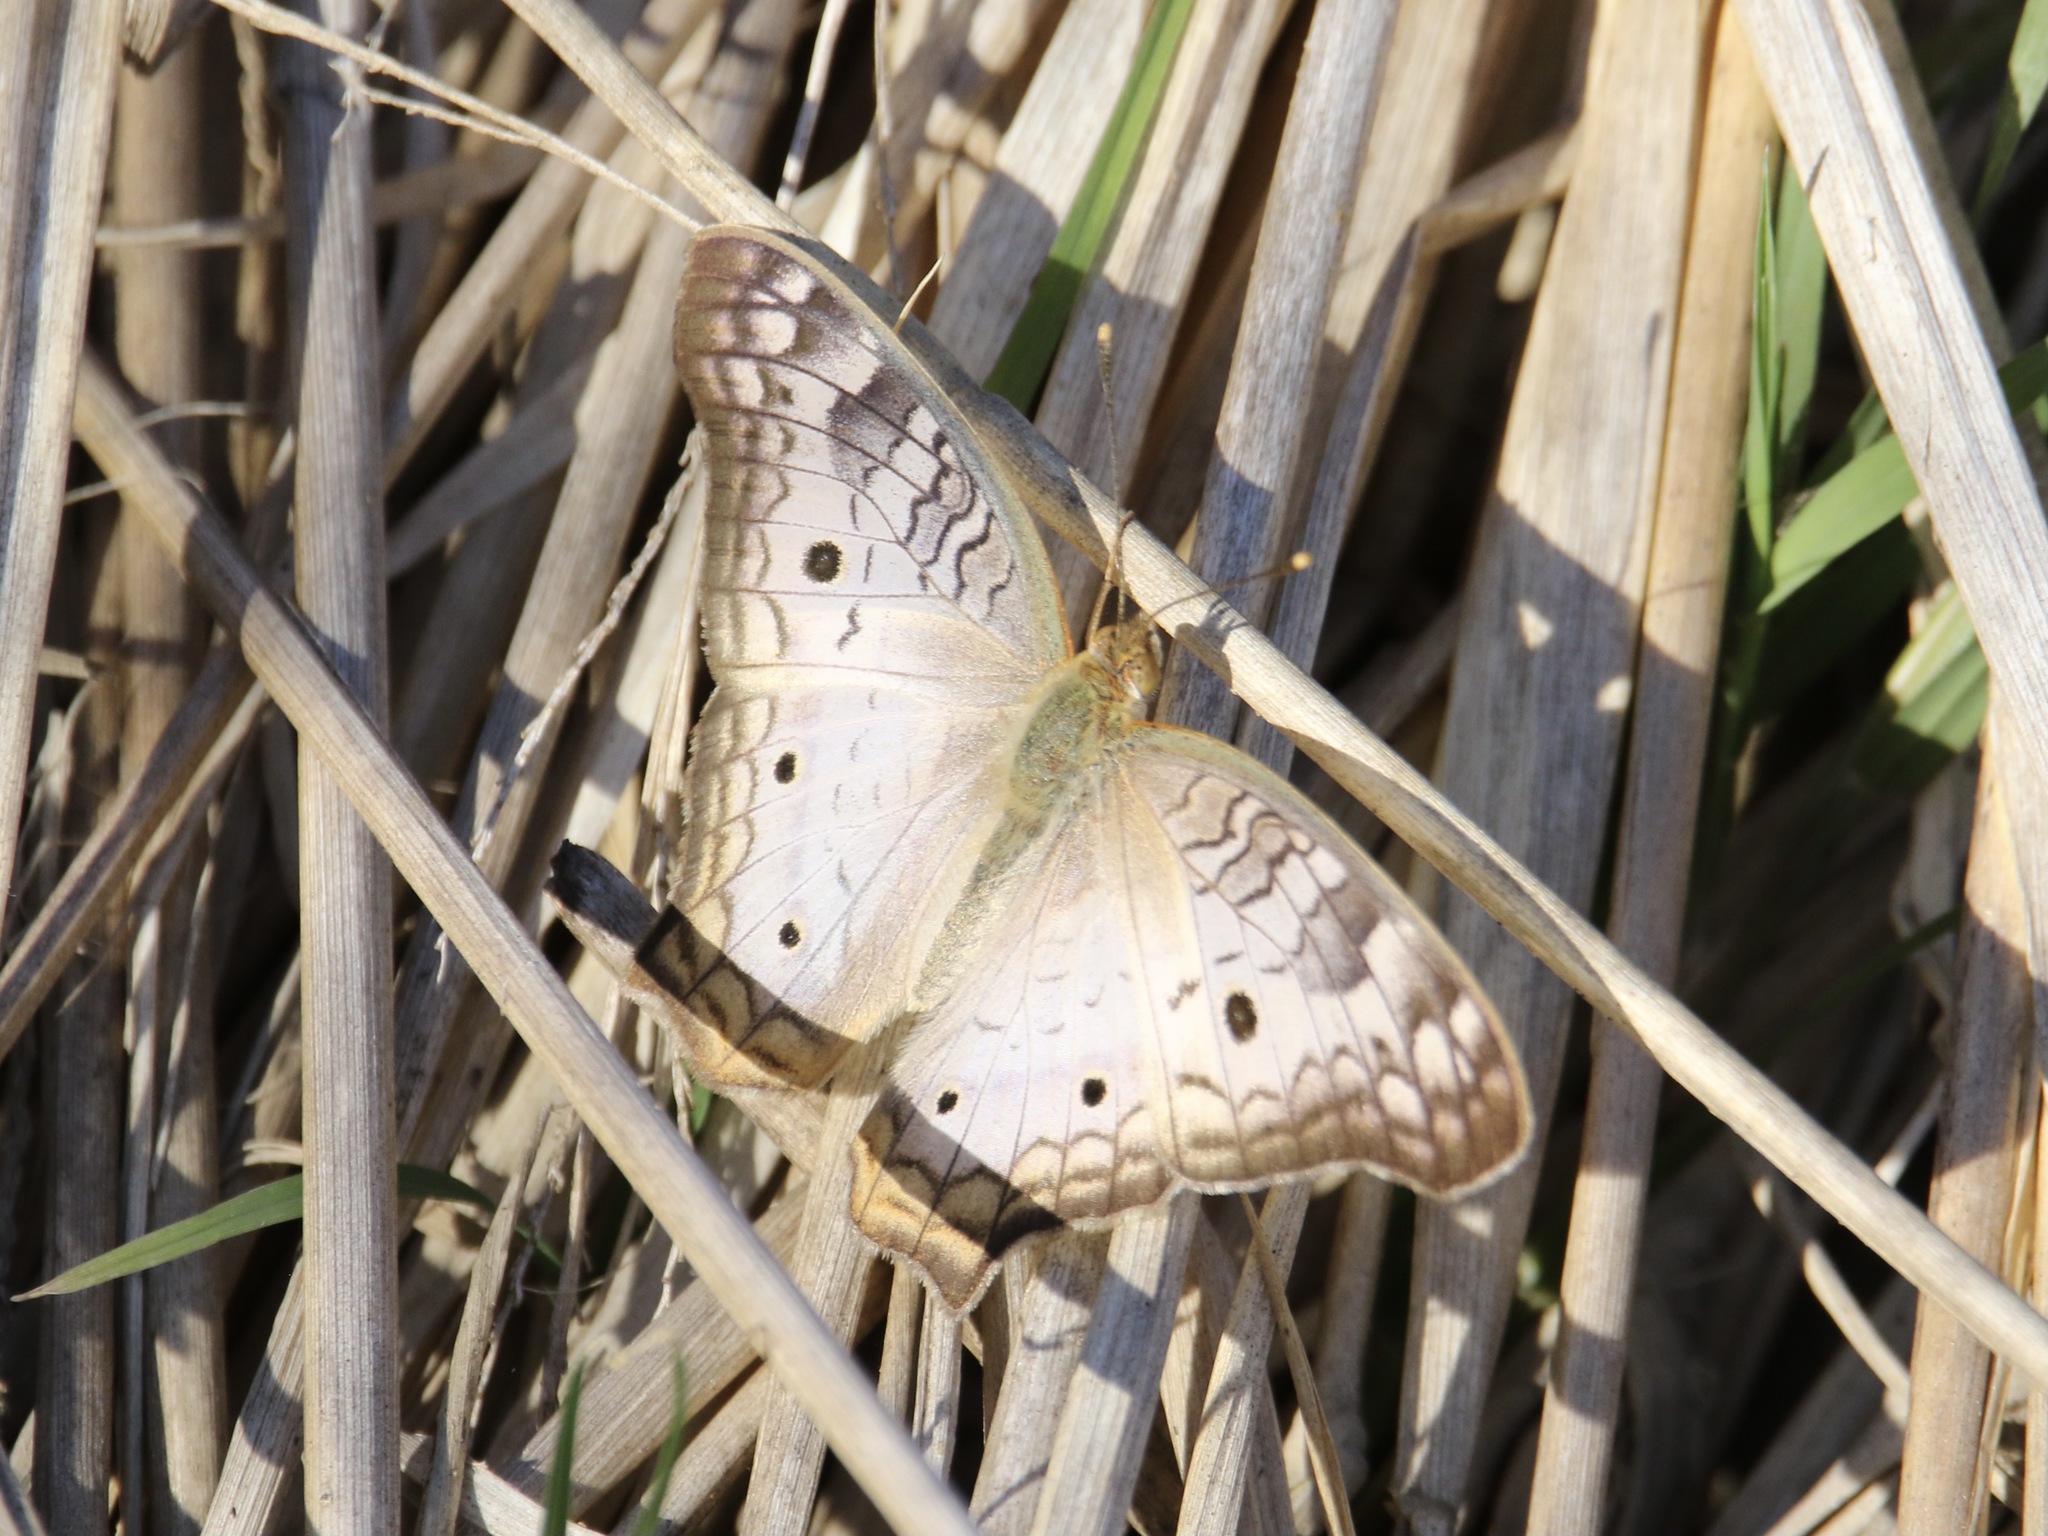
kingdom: Animalia
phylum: Arthropoda
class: Insecta
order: Lepidoptera
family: Nymphalidae
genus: Anartia
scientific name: Anartia jatrophae
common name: White peacock
